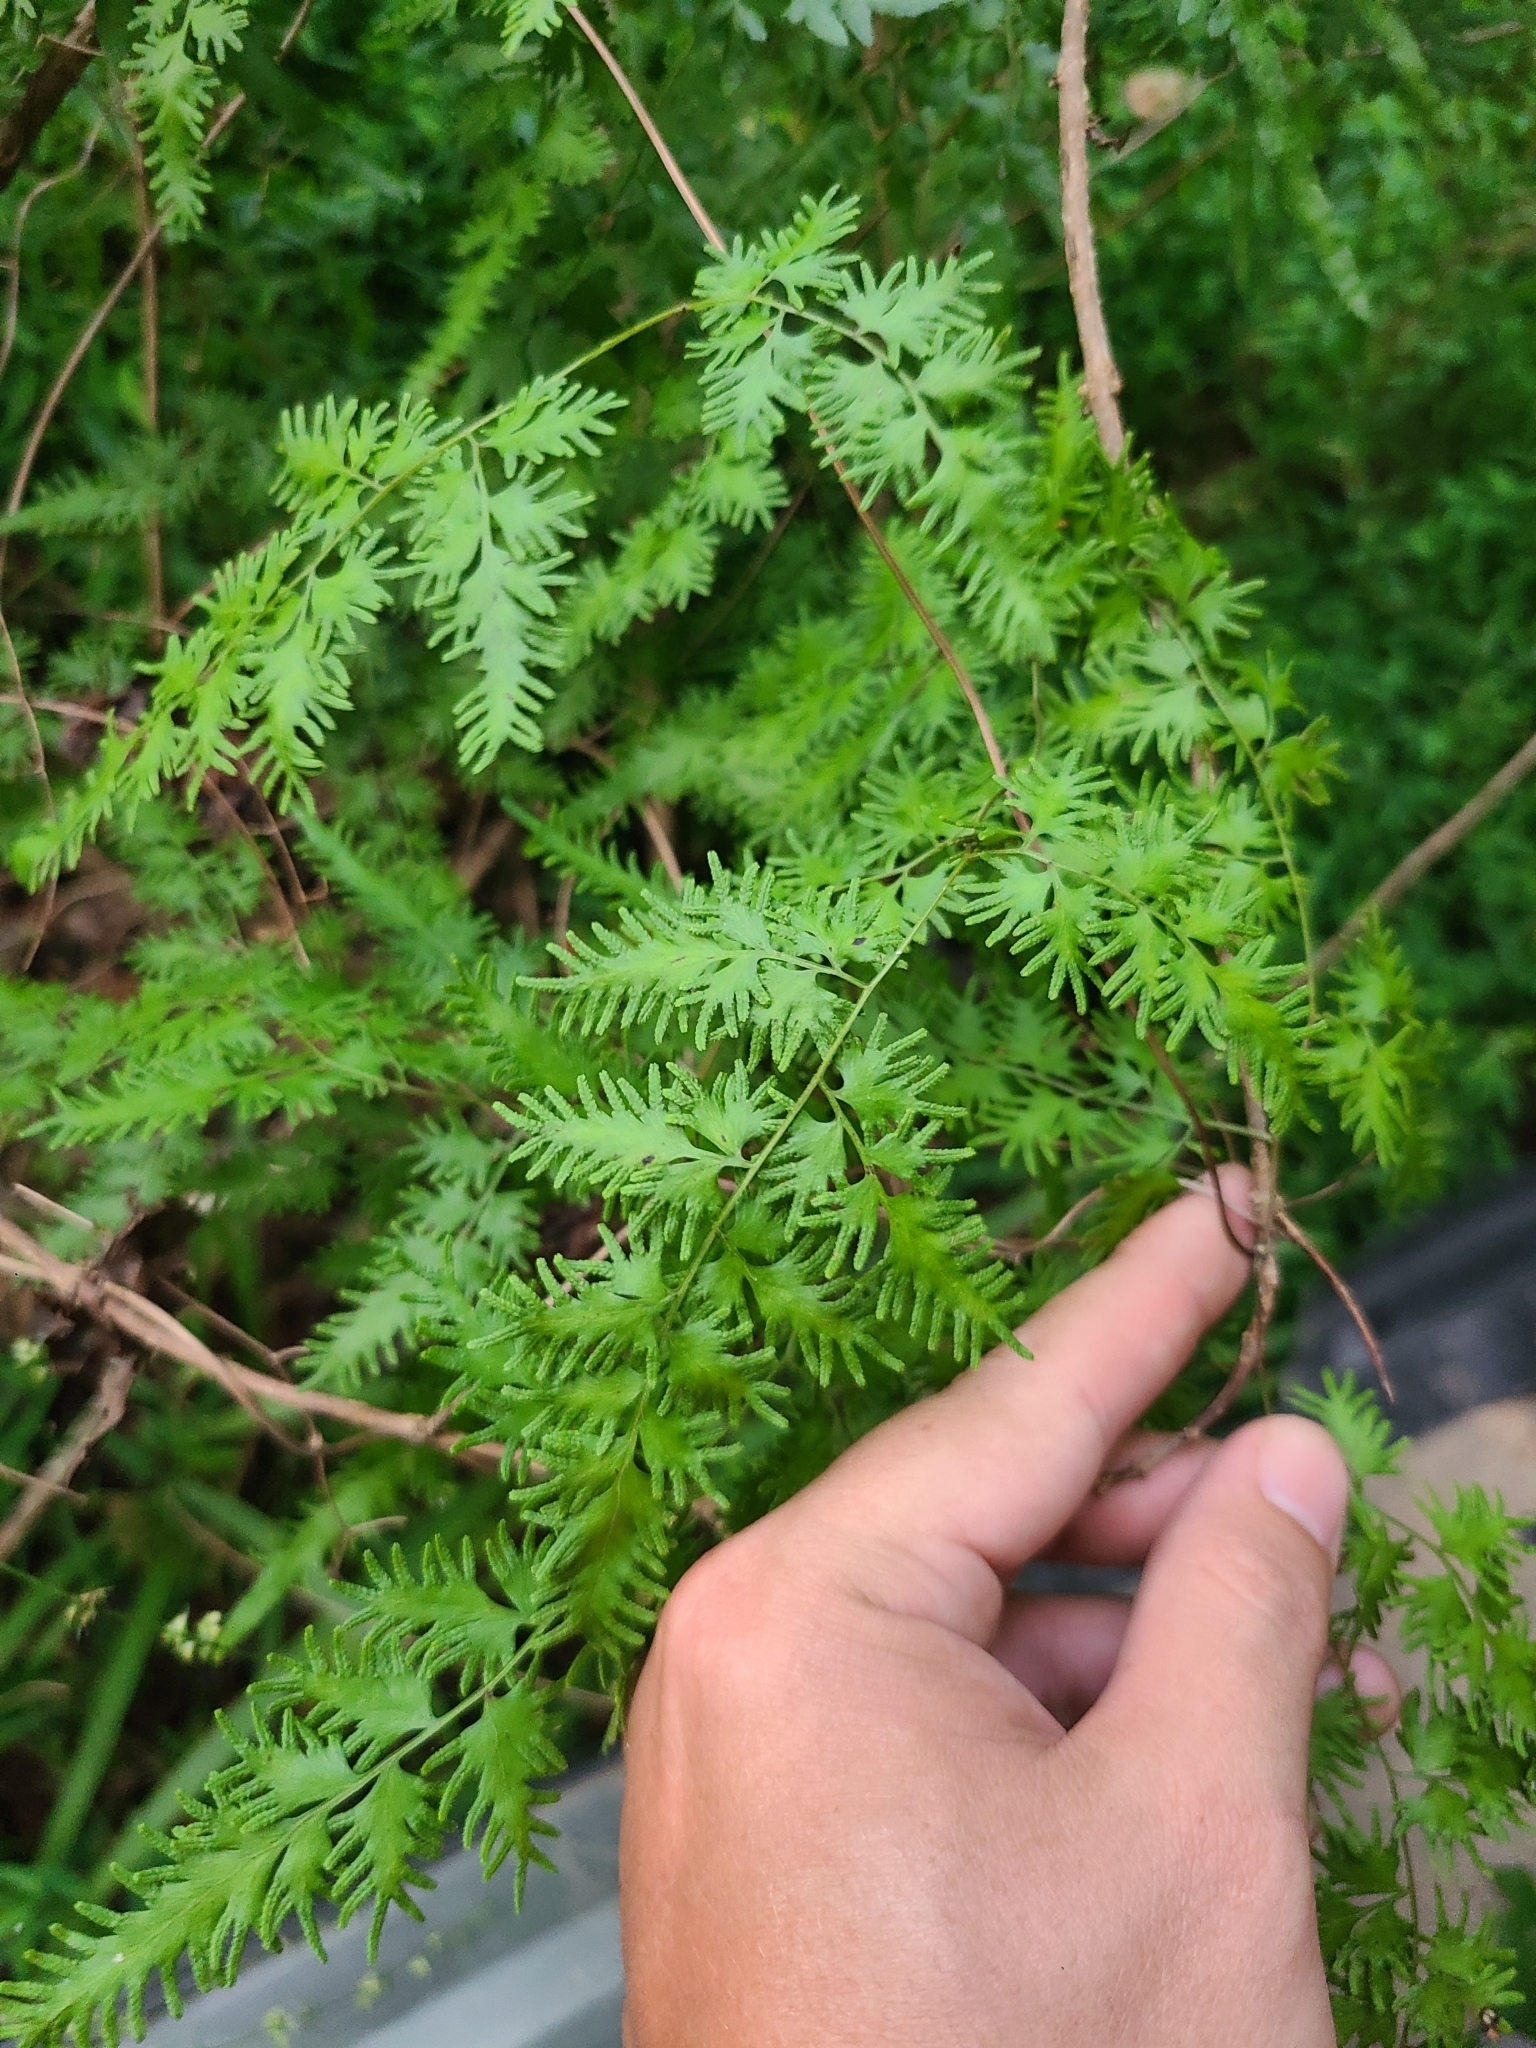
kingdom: Plantae
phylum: Tracheophyta
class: Polypodiopsida
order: Schizaeales
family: Lygodiaceae
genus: Lygodium
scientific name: Lygodium japonicum
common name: Japanese climbing fern
